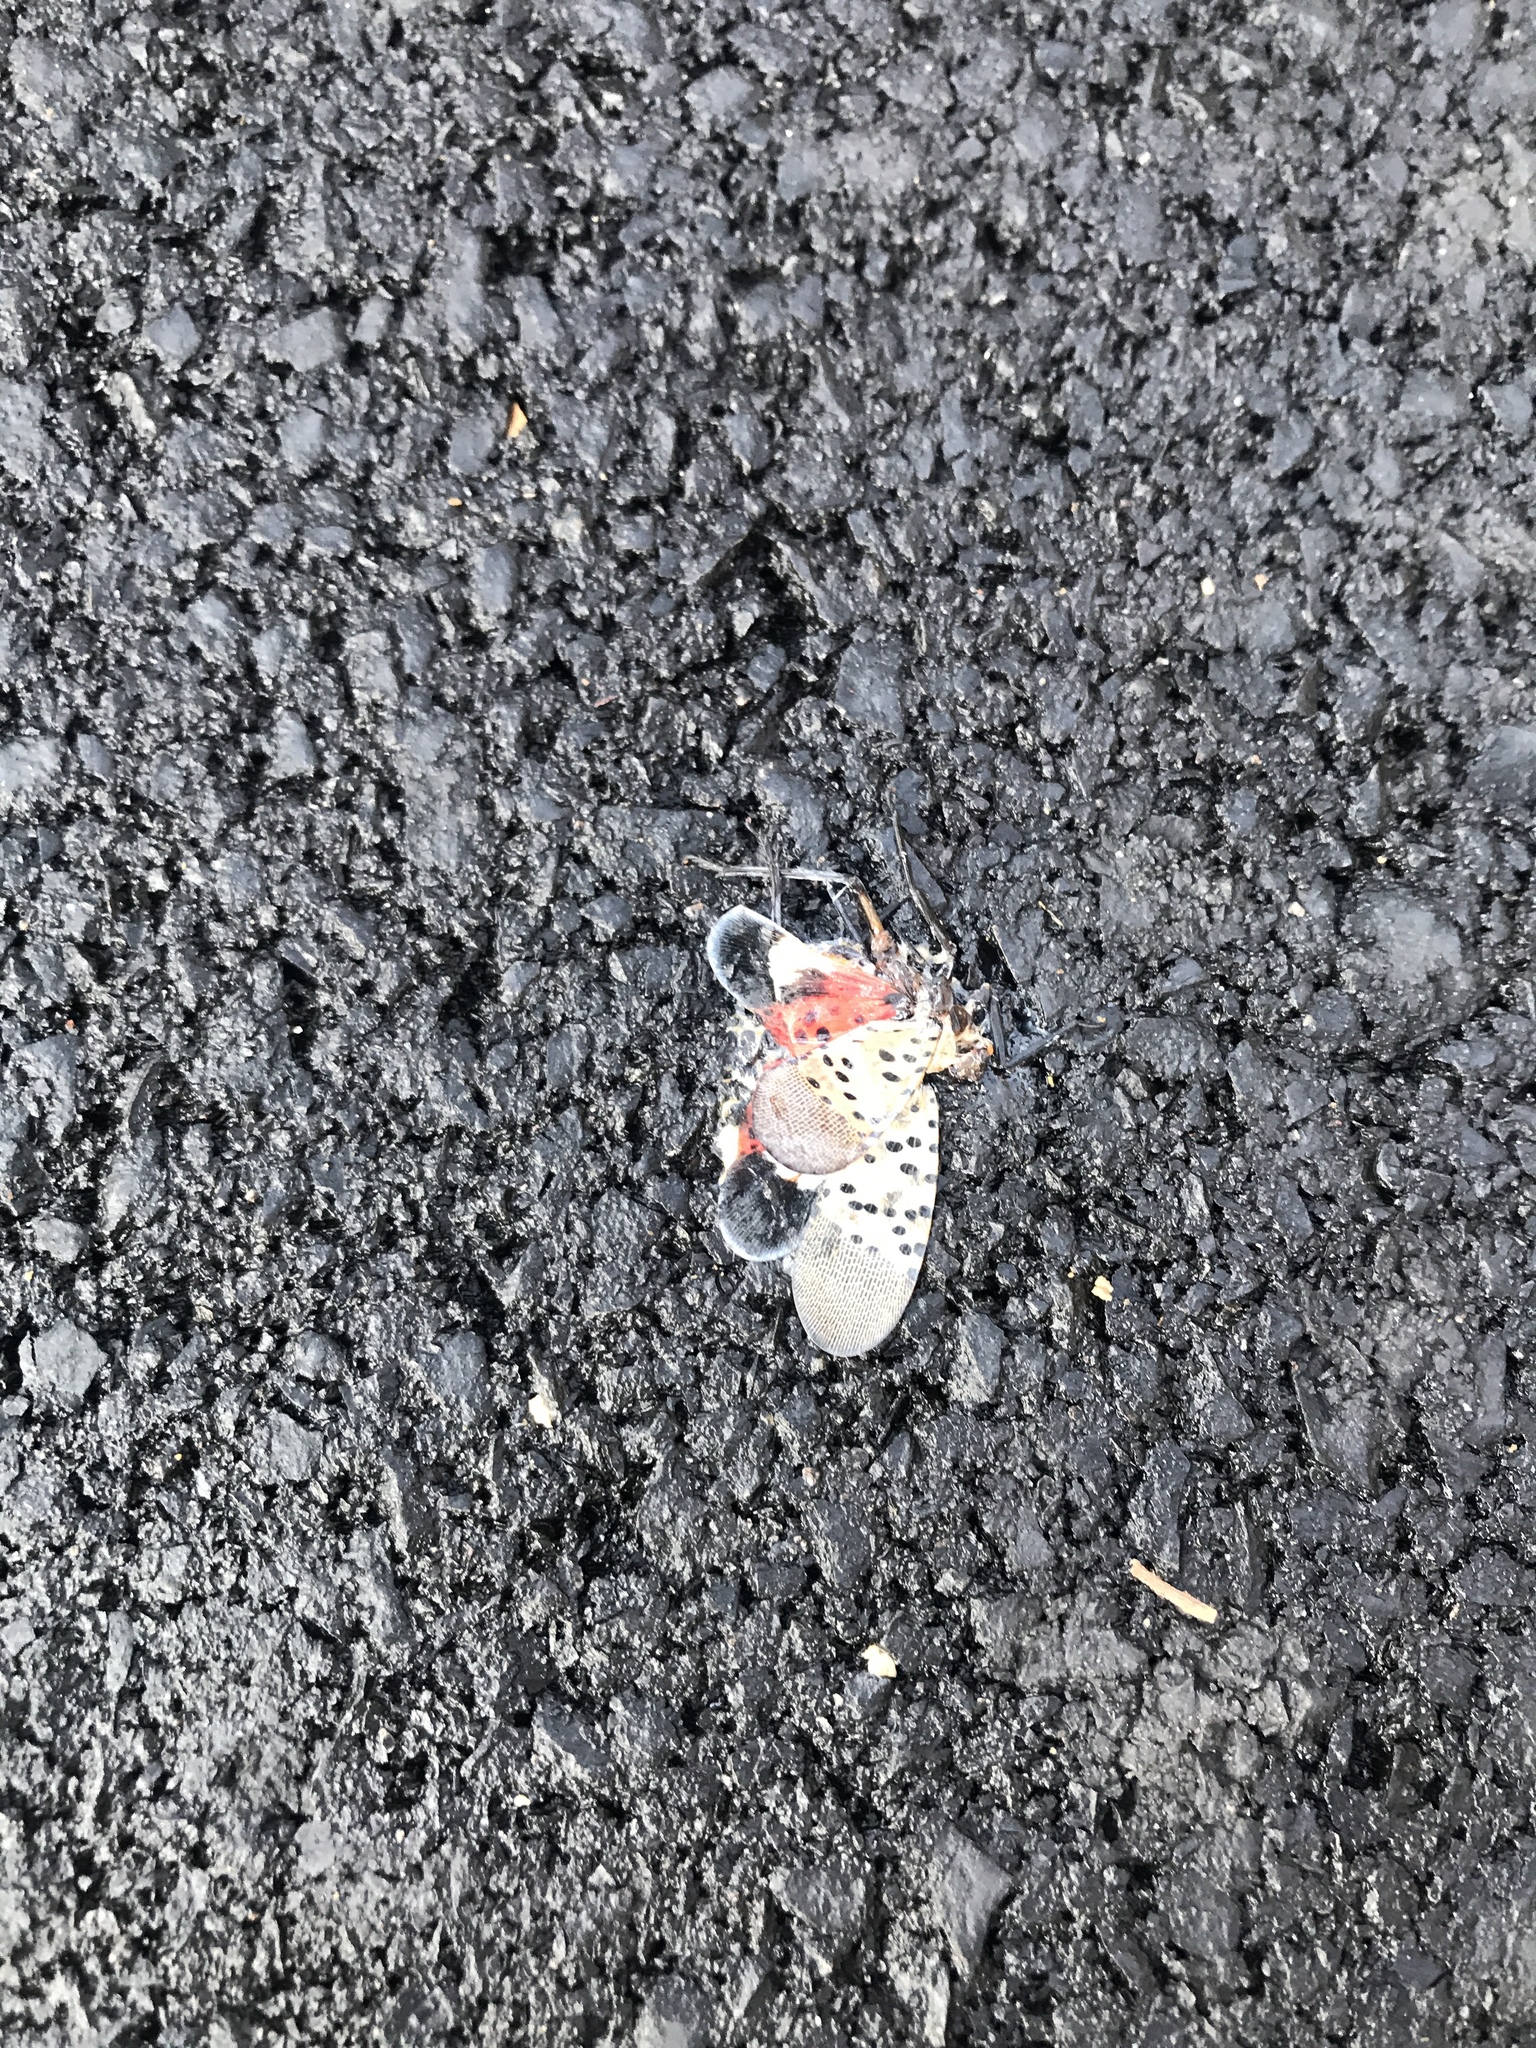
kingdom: Animalia
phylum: Arthropoda
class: Insecta
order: Hemiptera
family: Fulgoridae
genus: Lycorma
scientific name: Lycorma delicatula
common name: Spotted lanternfly
